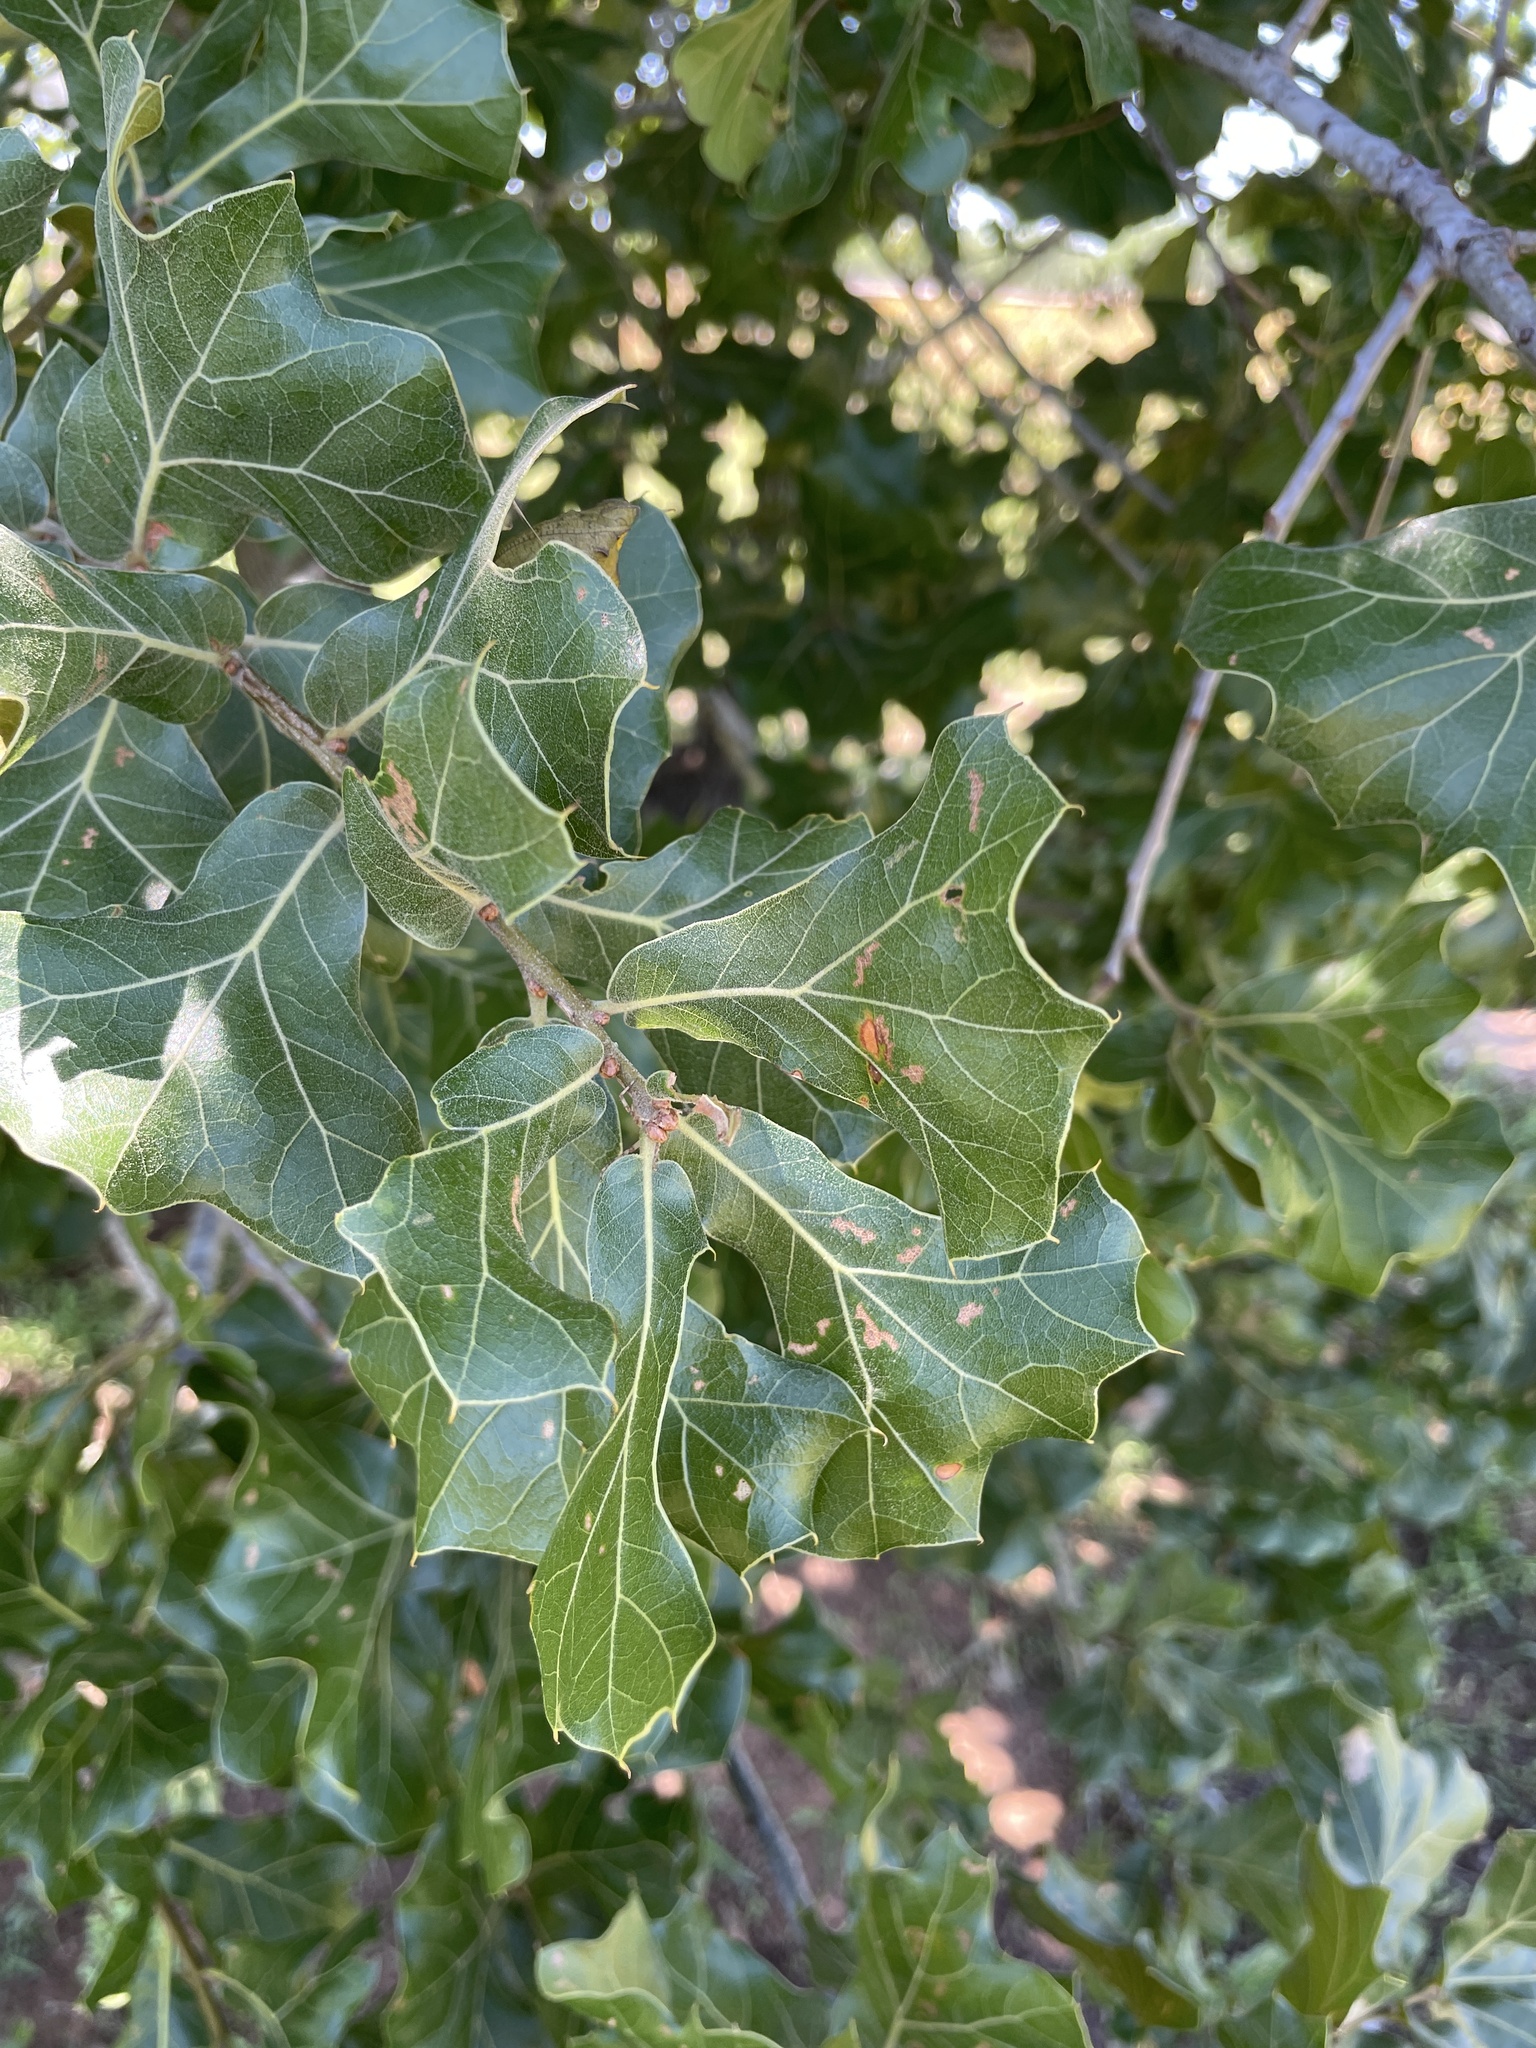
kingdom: Plantae
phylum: Tracheophyta
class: Magnoliopsida
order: Fagales
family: Fagaceae
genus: Quercus
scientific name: Quercus marilandica
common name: Blackjack oak
